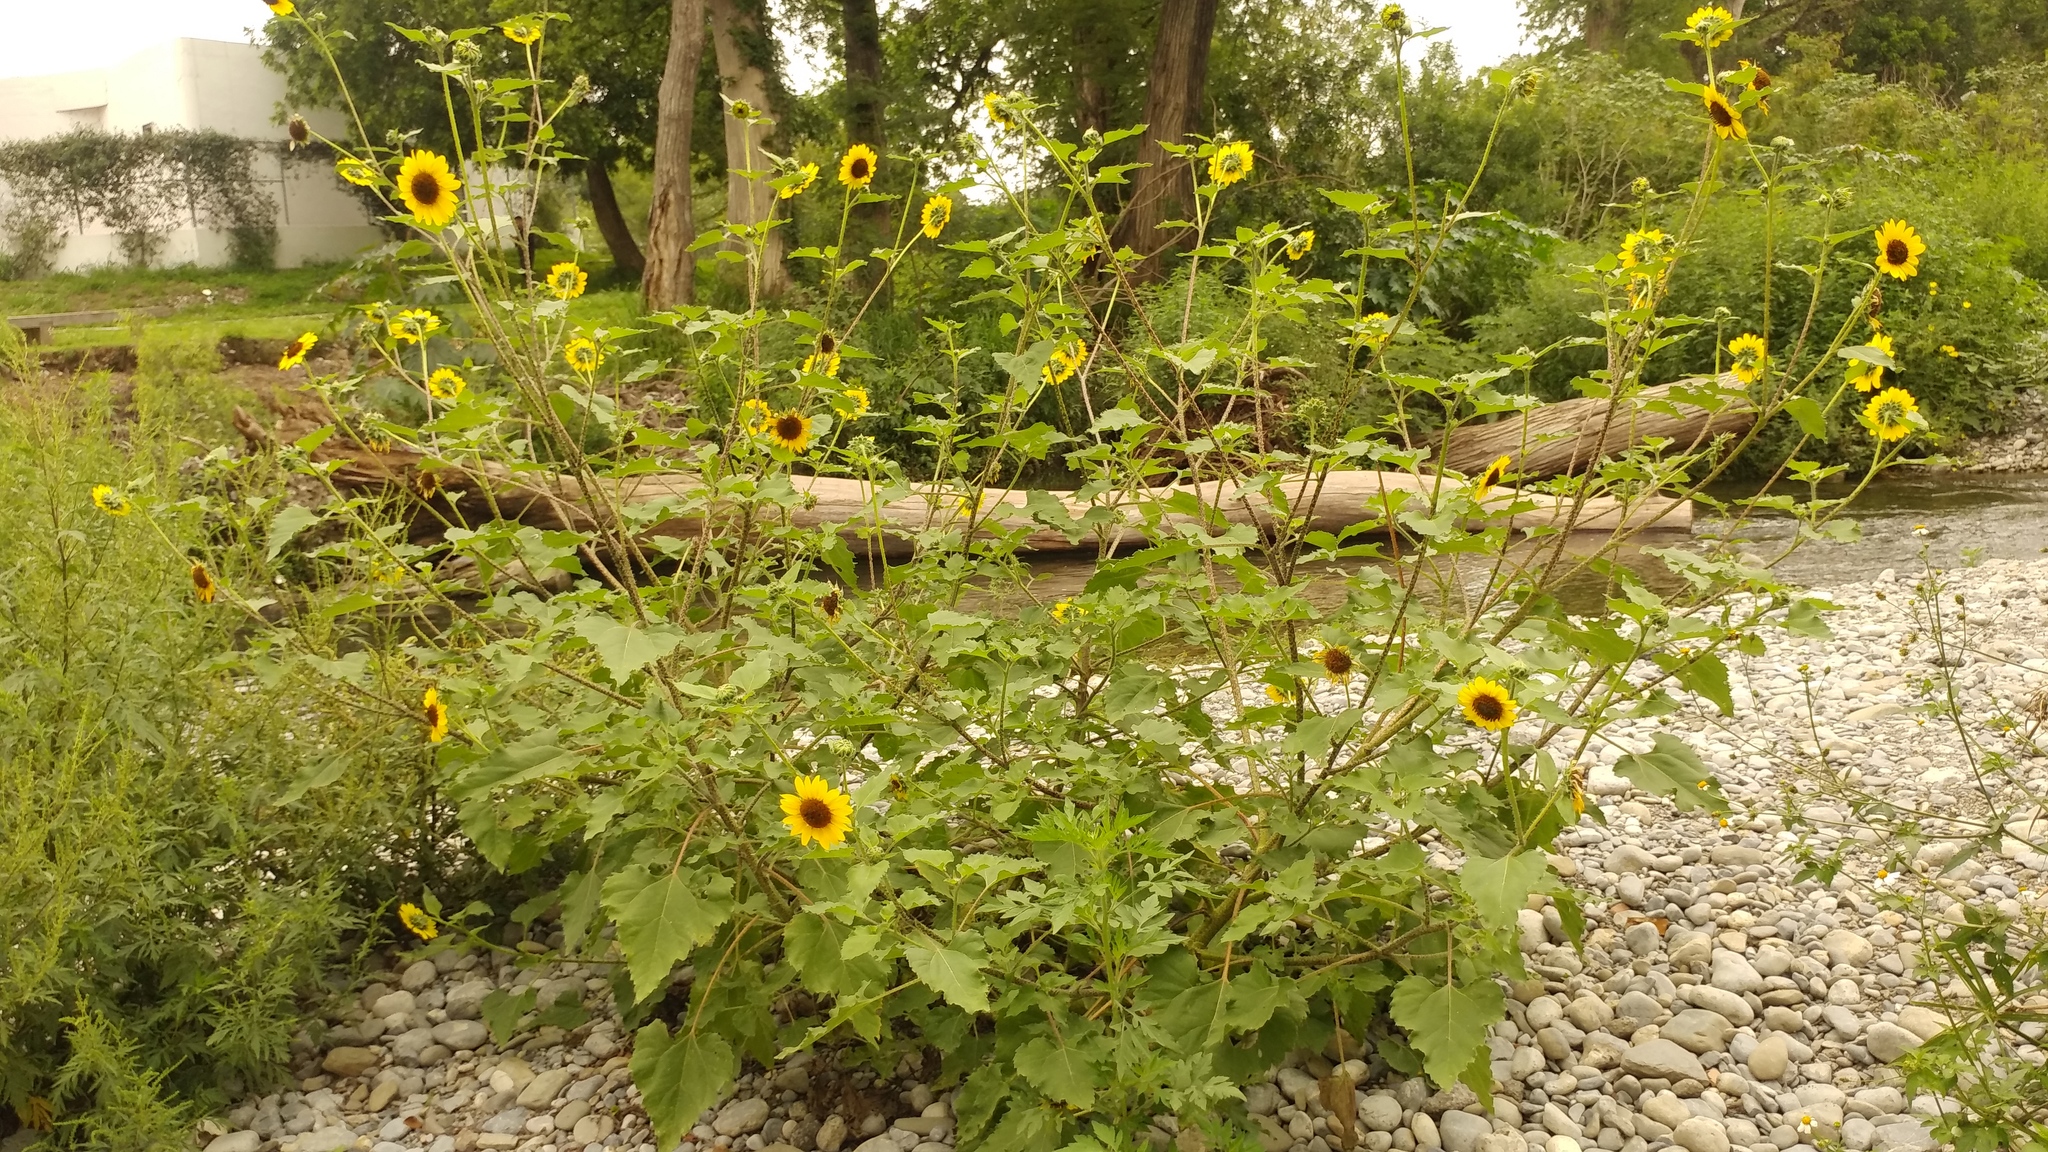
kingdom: Plantae
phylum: Tracheophyta
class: Magnoliopsida
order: Asterales
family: Asteraceae
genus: Helianthus
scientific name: Helianthus annuus
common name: Sunflower
